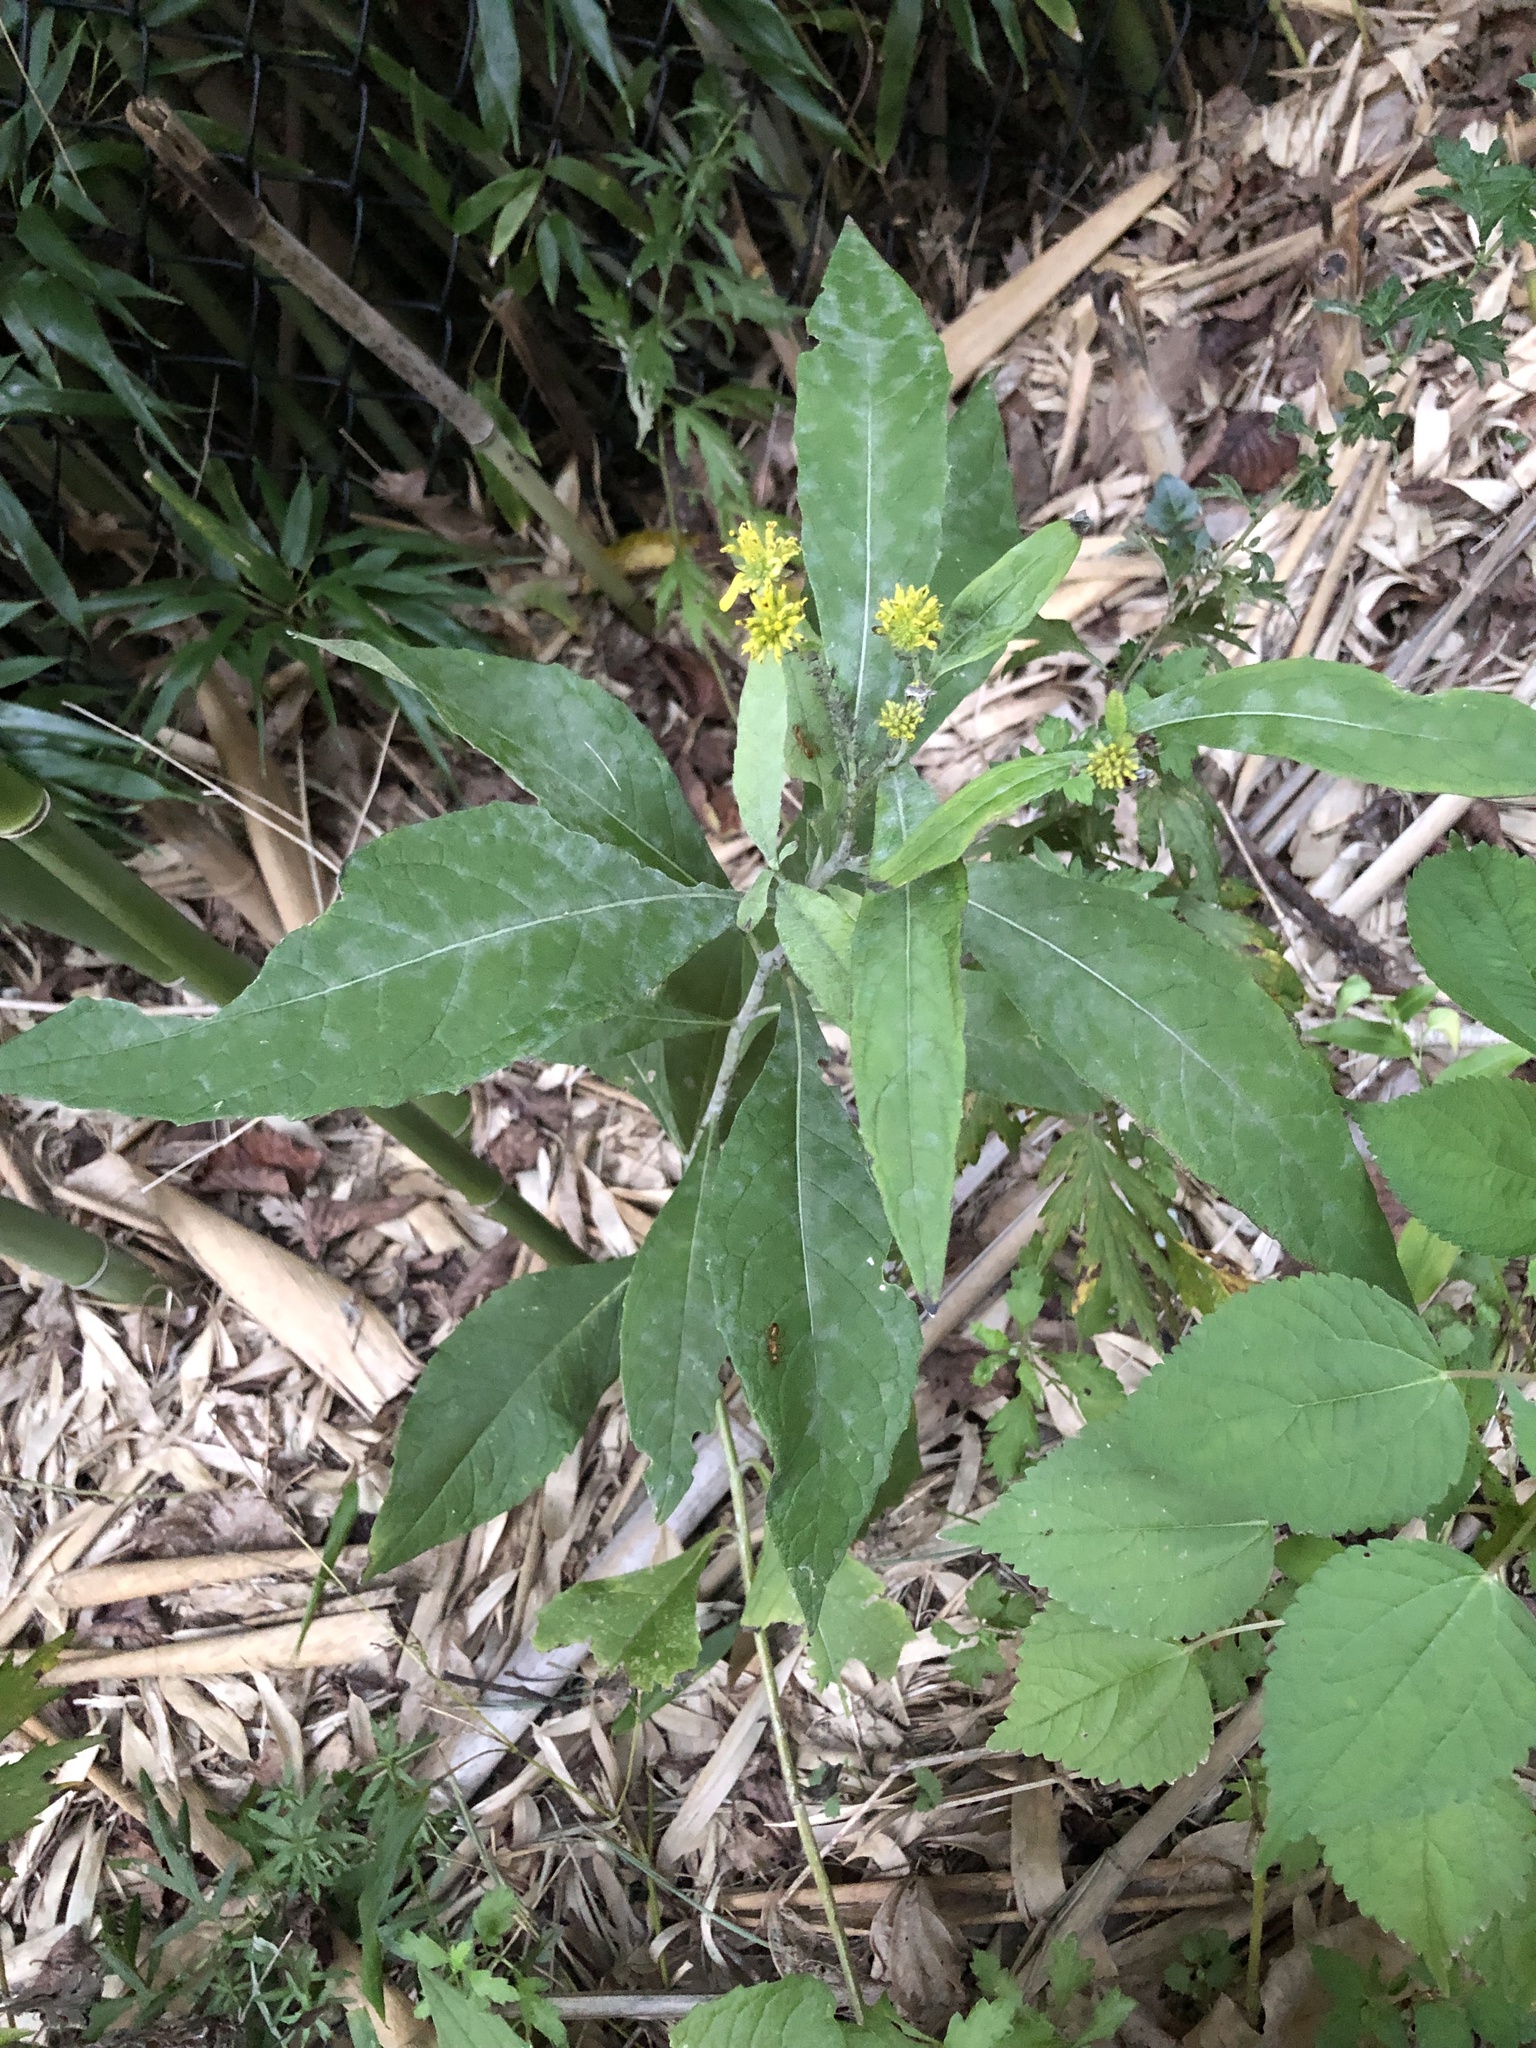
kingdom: Plantae
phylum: Tracheophyta
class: Magnoliopsida
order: Asterales
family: Asteraceae
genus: Verbesina
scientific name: Verbesina alternifolia
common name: Wingstem
